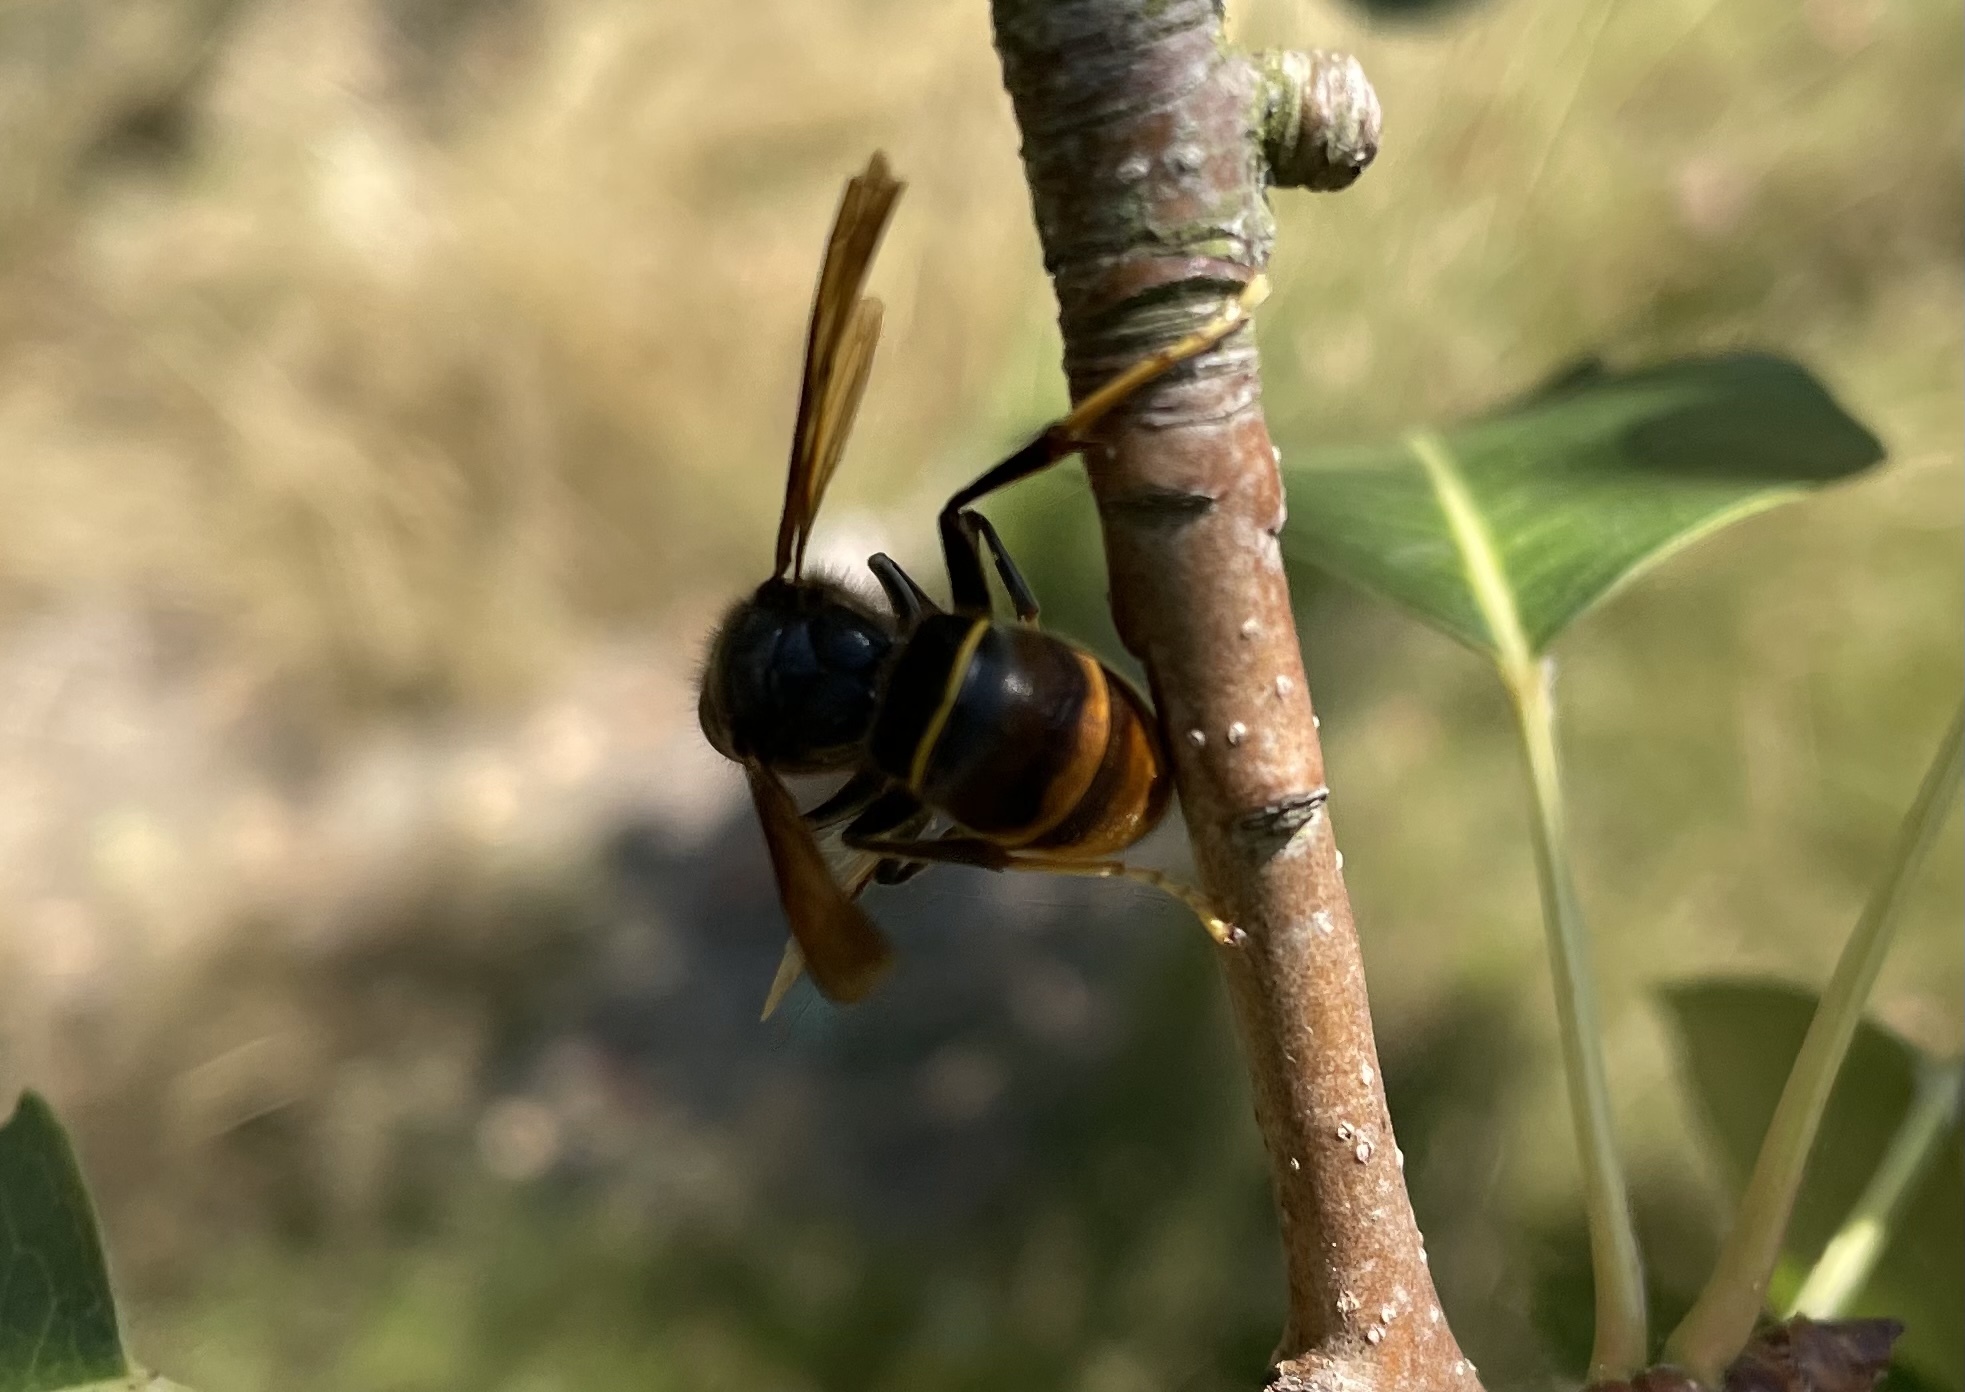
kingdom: Animalia
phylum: Arthropoda
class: Insecta
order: Hymenoptera
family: Vespidae
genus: Vespa
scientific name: Vespa velutina
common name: Asian hornet
